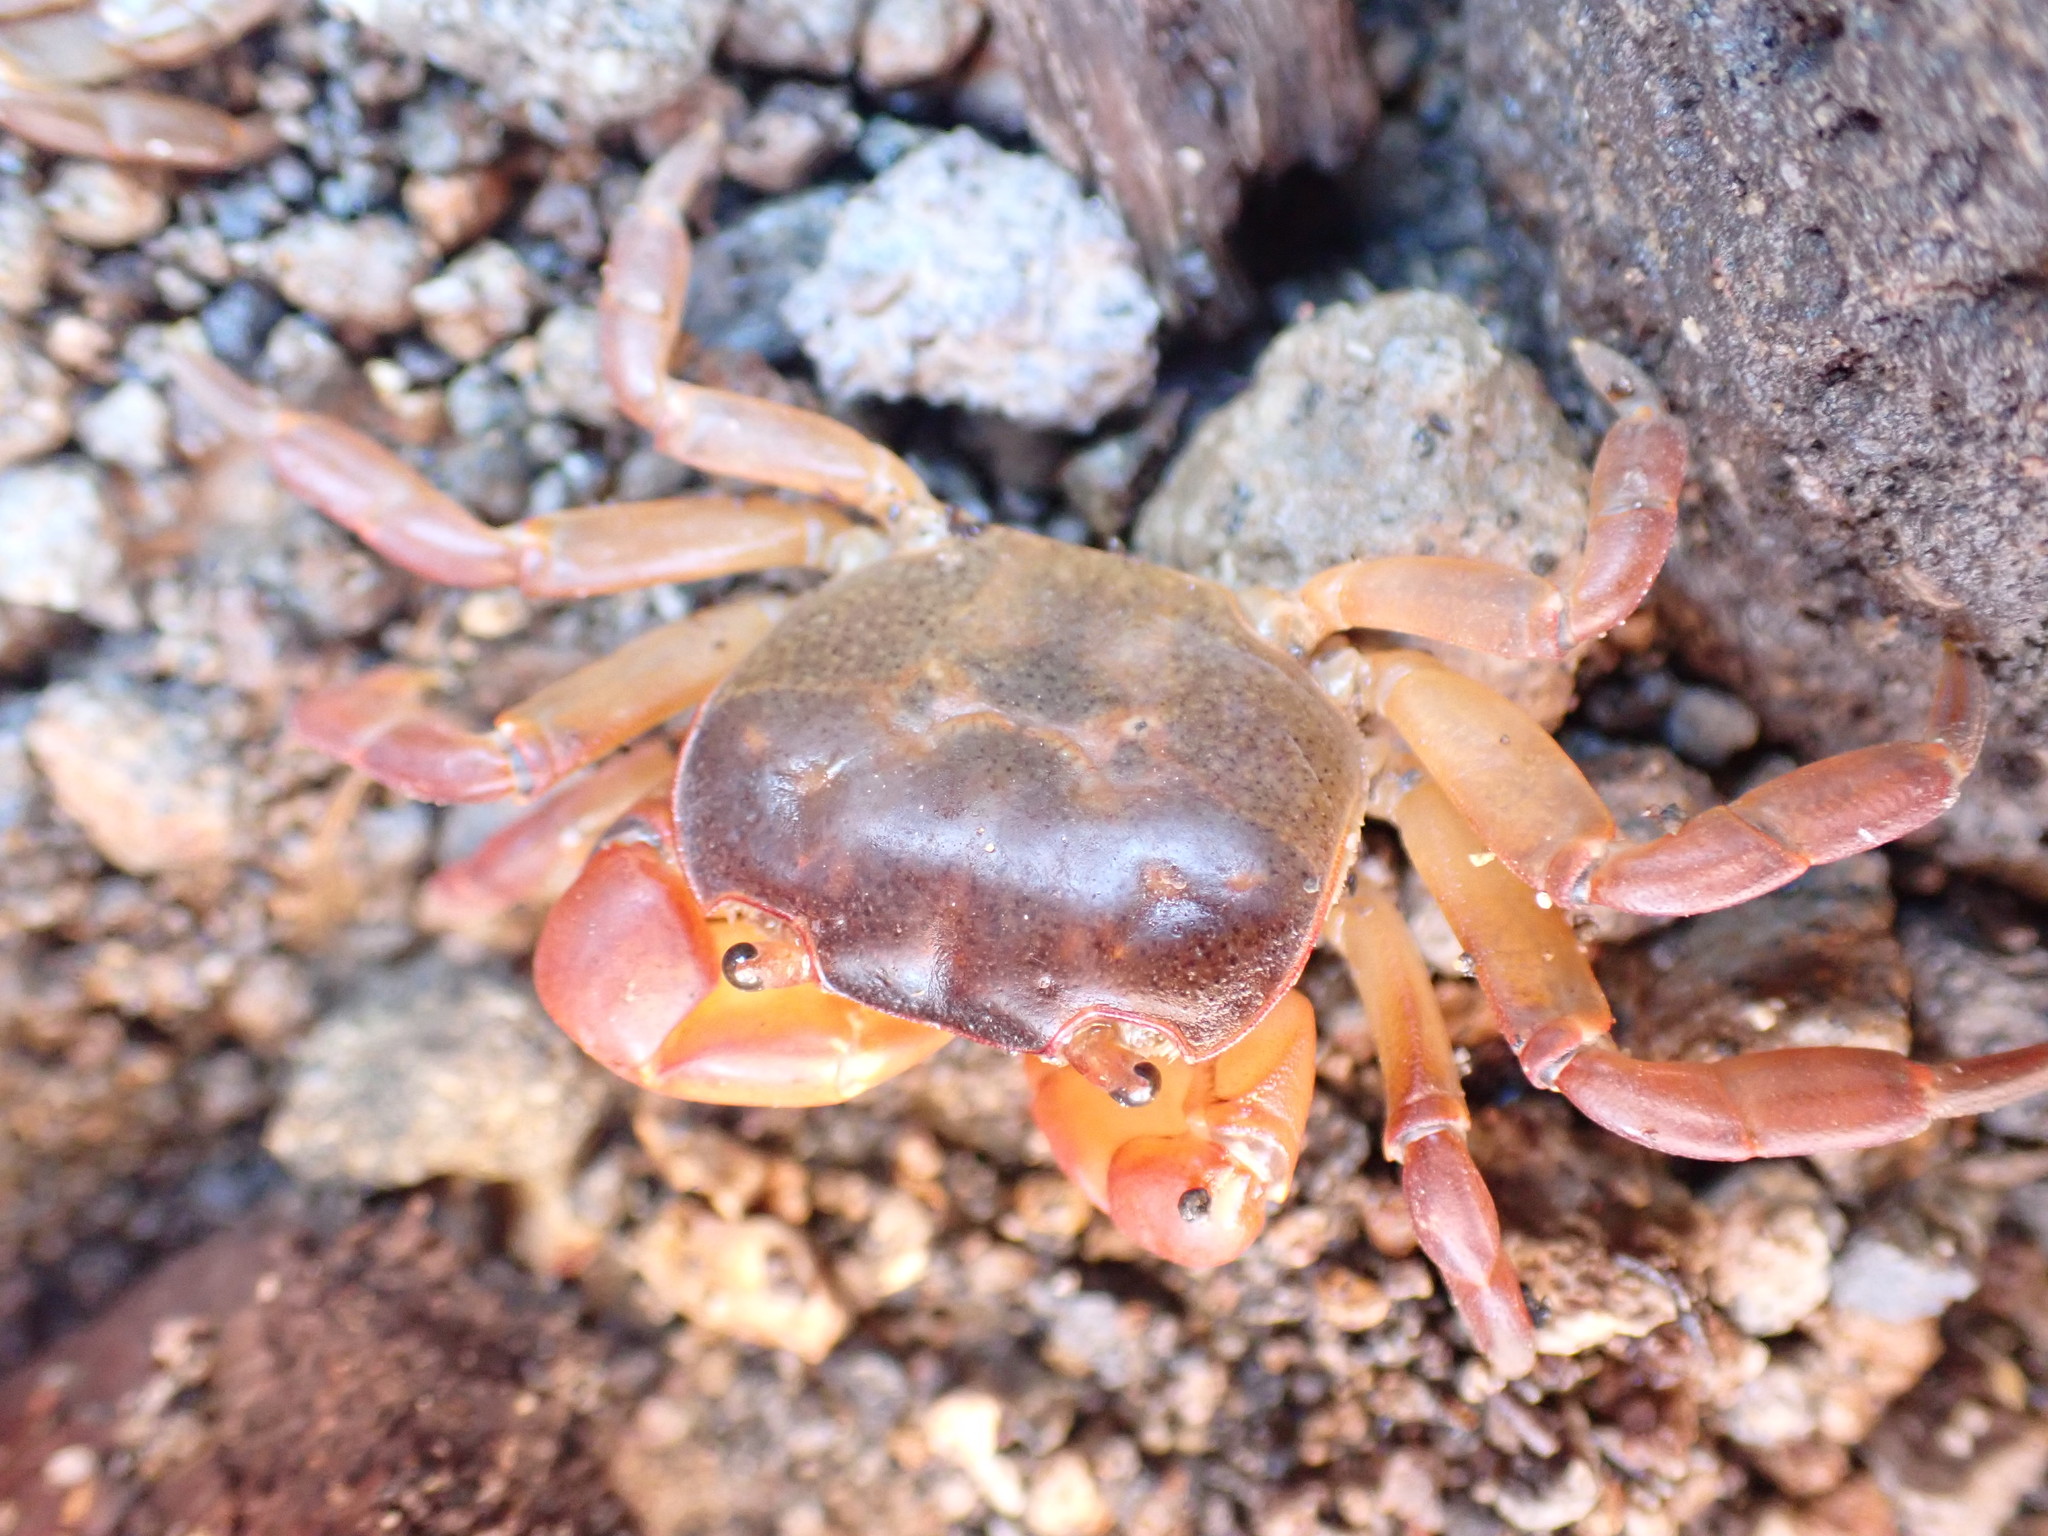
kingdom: Animalia
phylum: Arthropoda
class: Malacostraca
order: Decapoda
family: Varunidae
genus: Cyclograpsus
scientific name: Cyclograpsus lavauxi
